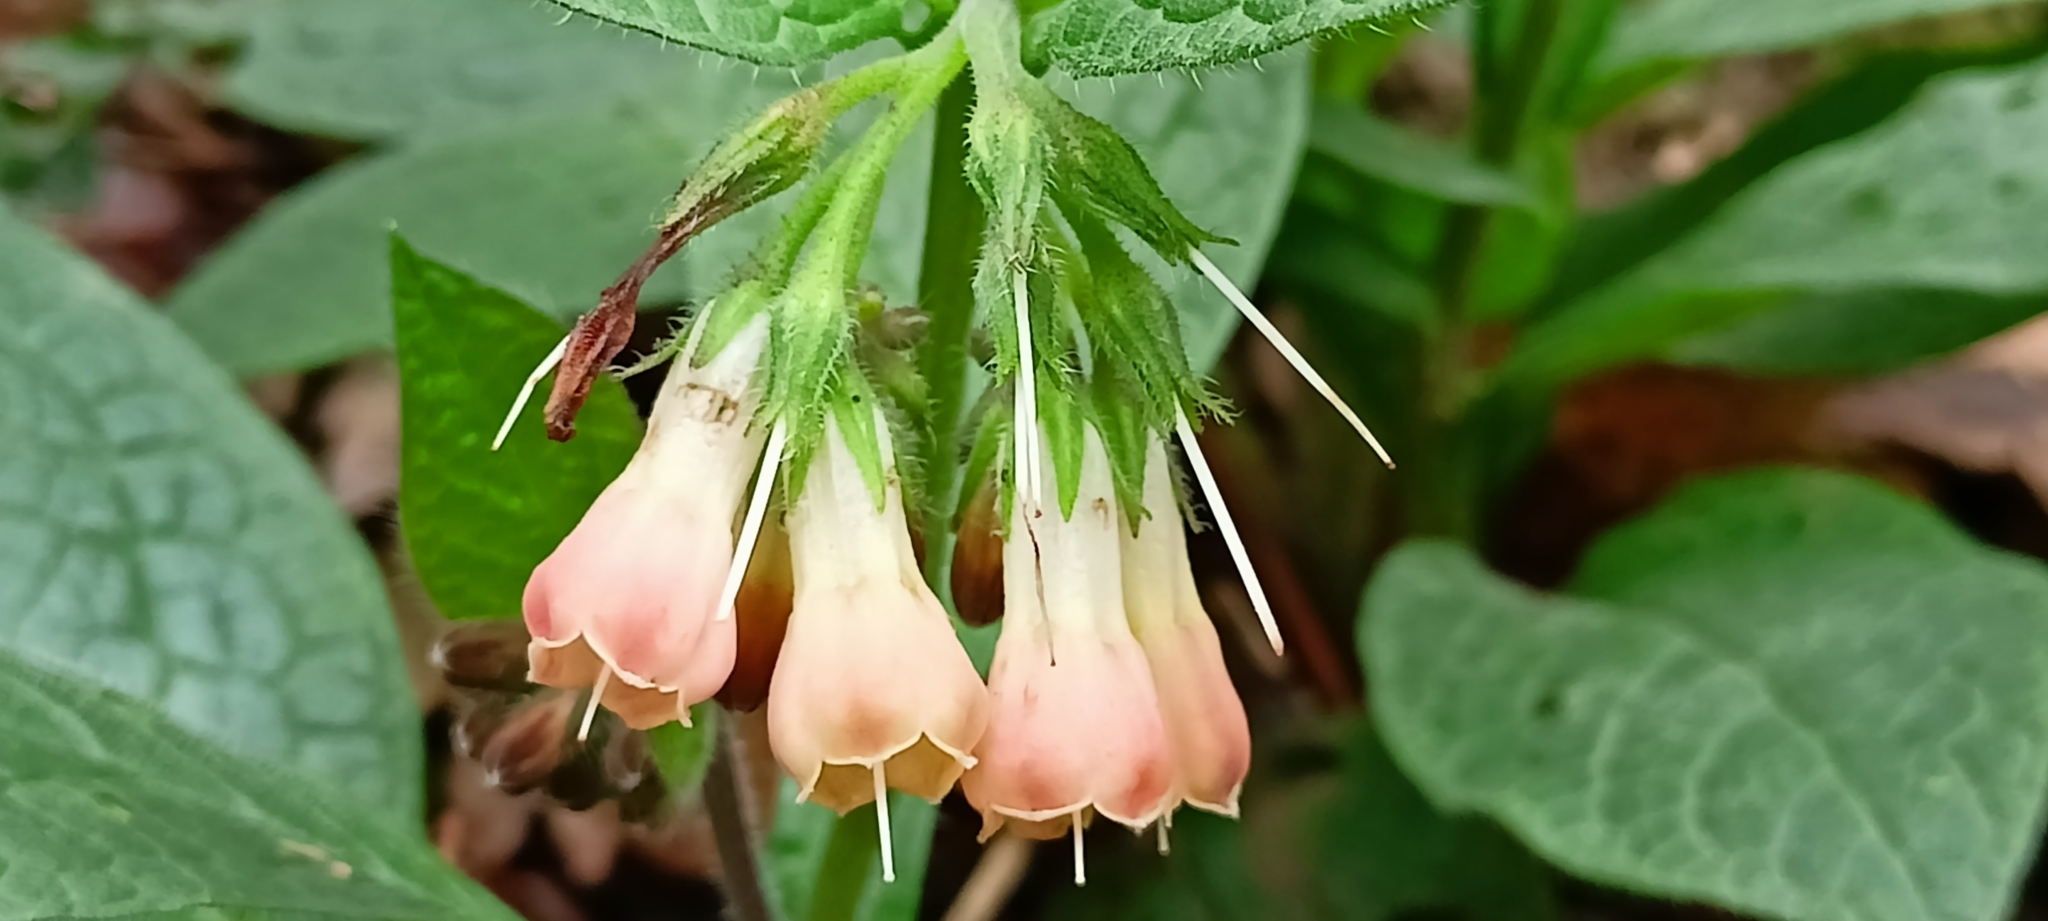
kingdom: Plantae
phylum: Tracheophyta
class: Magnoliopsida
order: Boraginales
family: Boraginaceae
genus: Symphytum
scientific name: Symphytum tuberosum
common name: Tuberous comfrey
